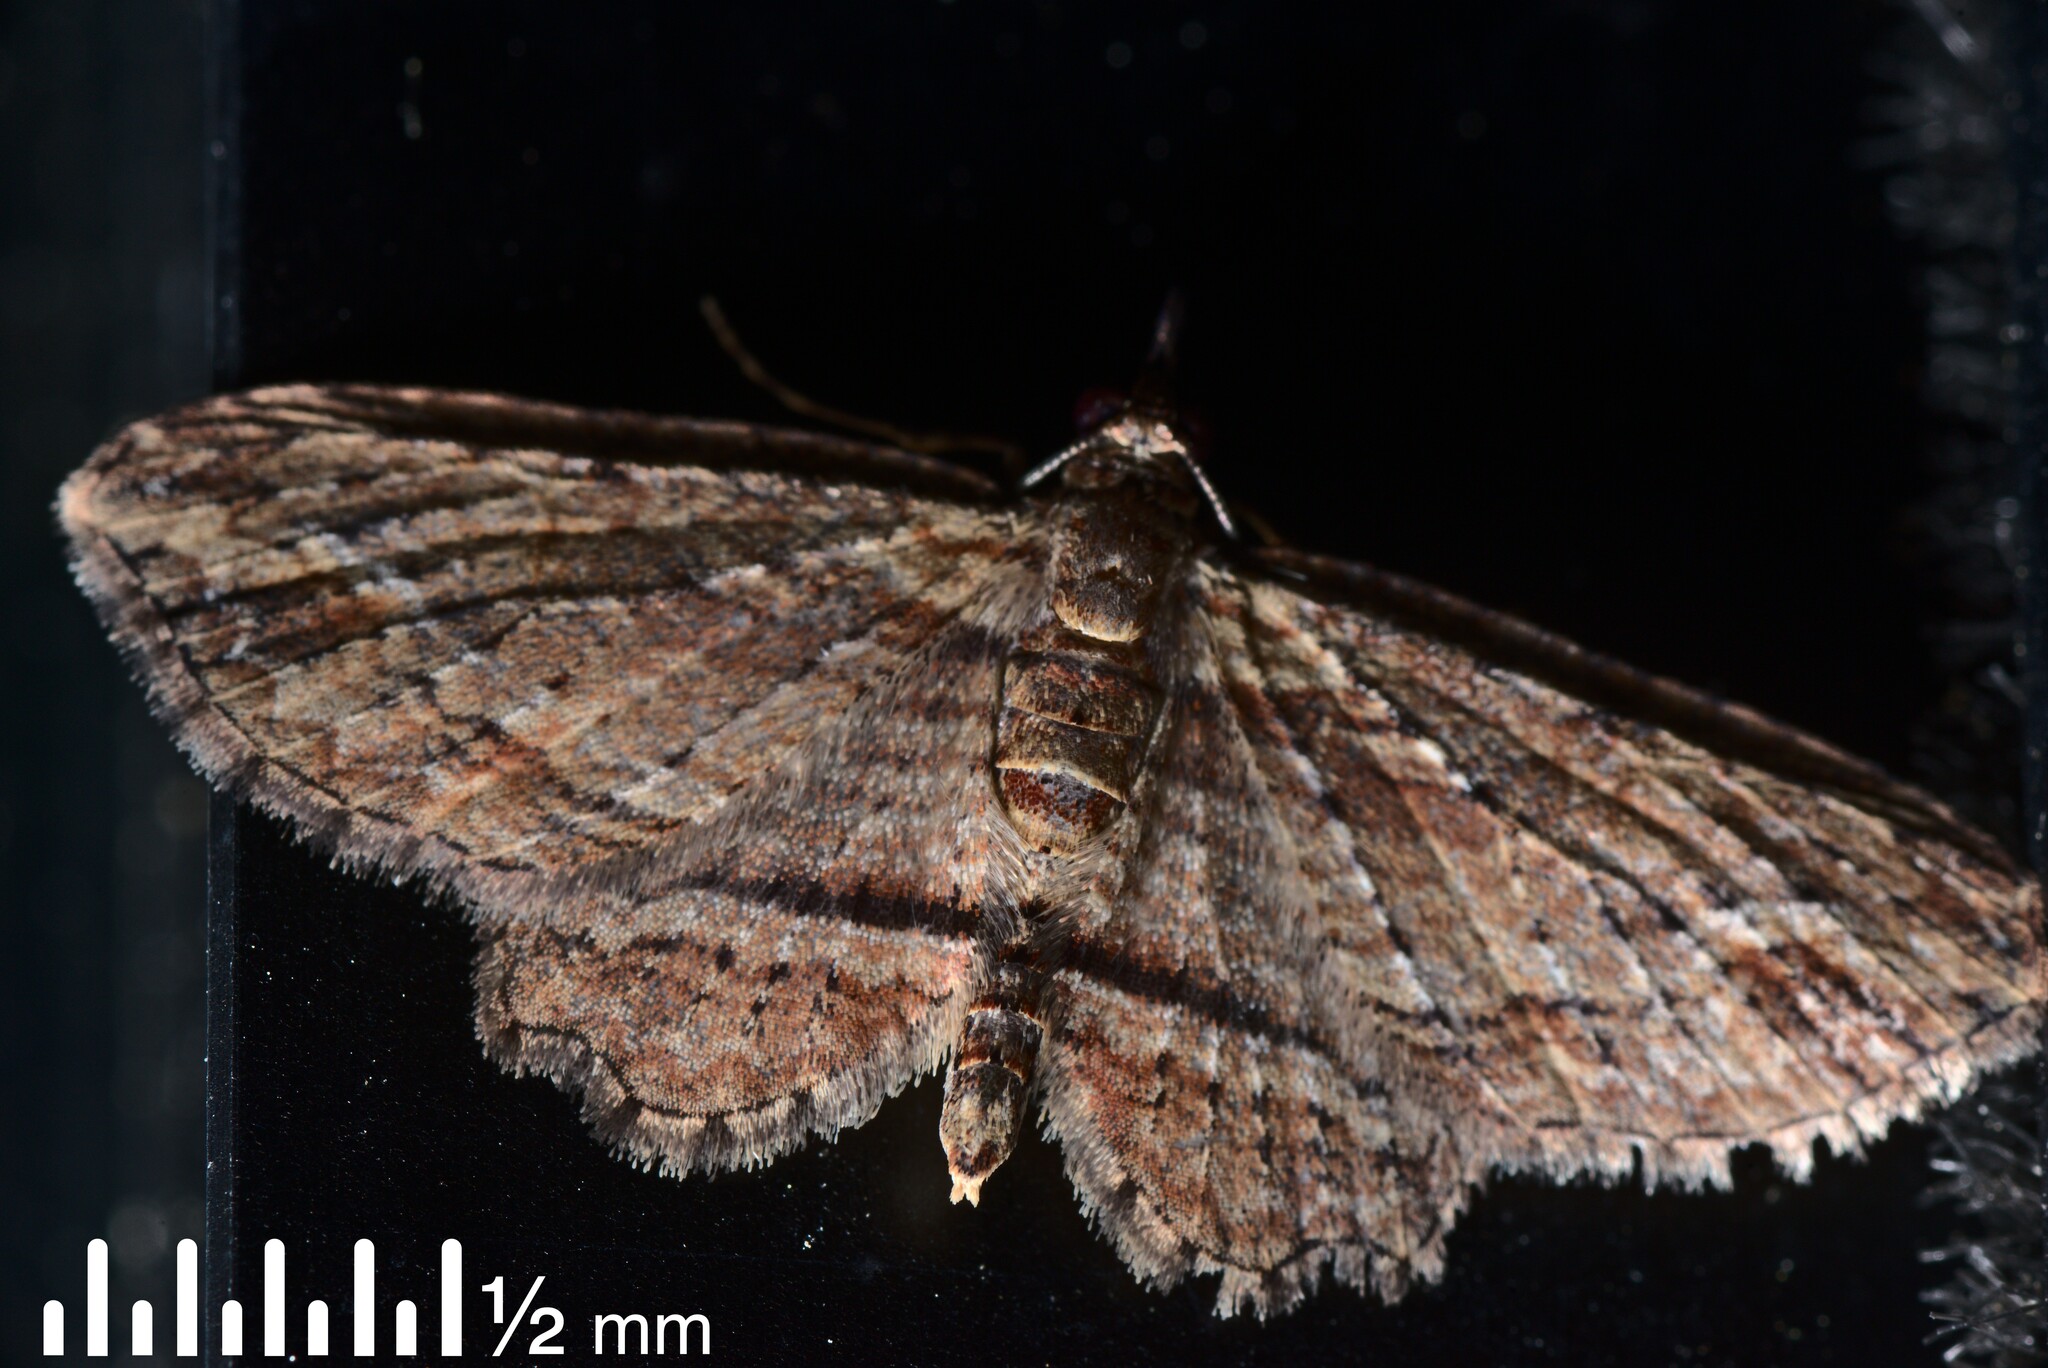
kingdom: Animalia
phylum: Arthropoda
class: Insecta
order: Lepidoptera
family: Geometridae
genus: Chloroclystis
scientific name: Chloroclystis filata
